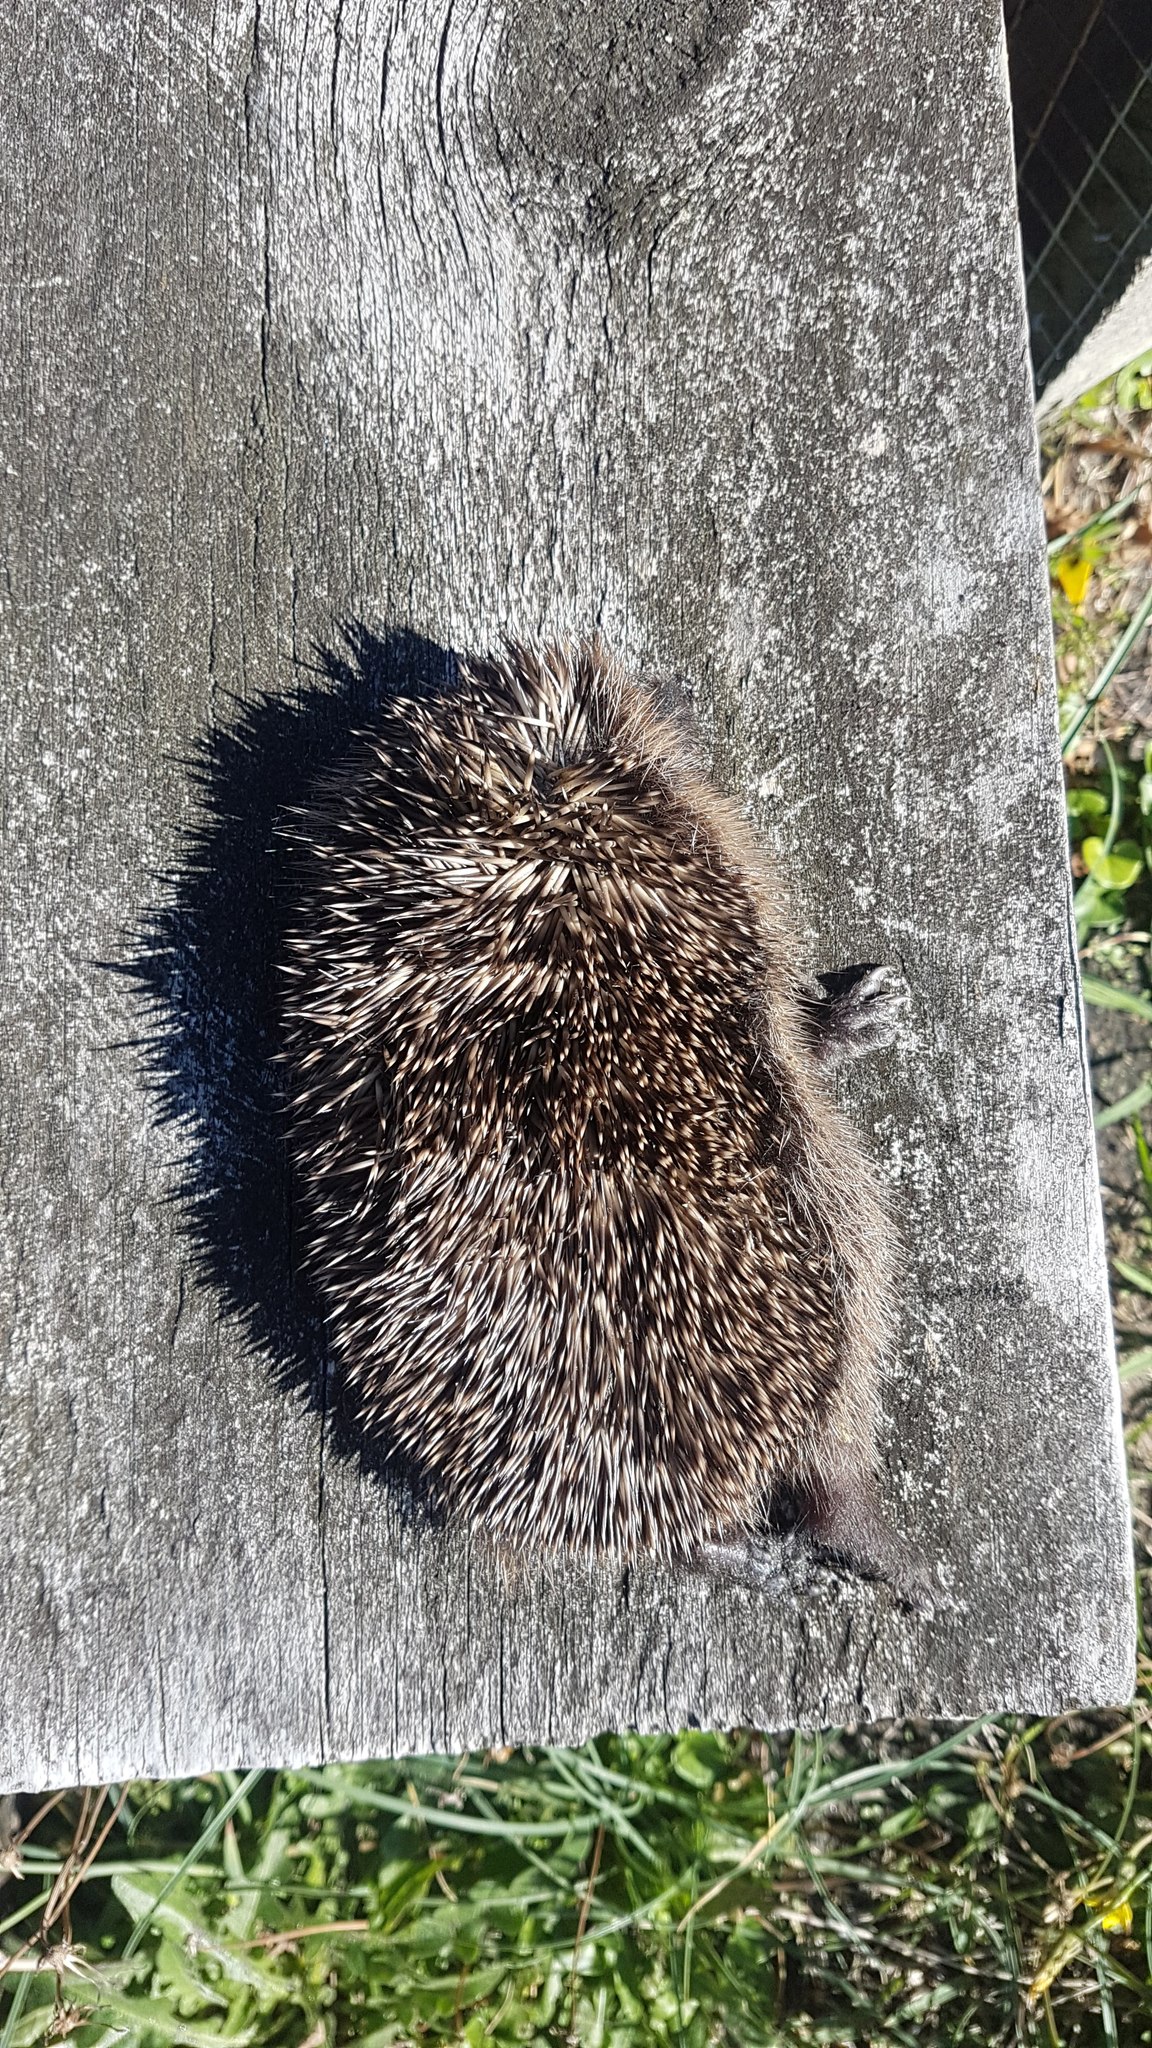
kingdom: Animalia
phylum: Chordata
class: Mammalia
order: Erinaceomorpha
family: Erinaceidae
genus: Erinaceus
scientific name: Erinaceus europaeus
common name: West european hedgehog
